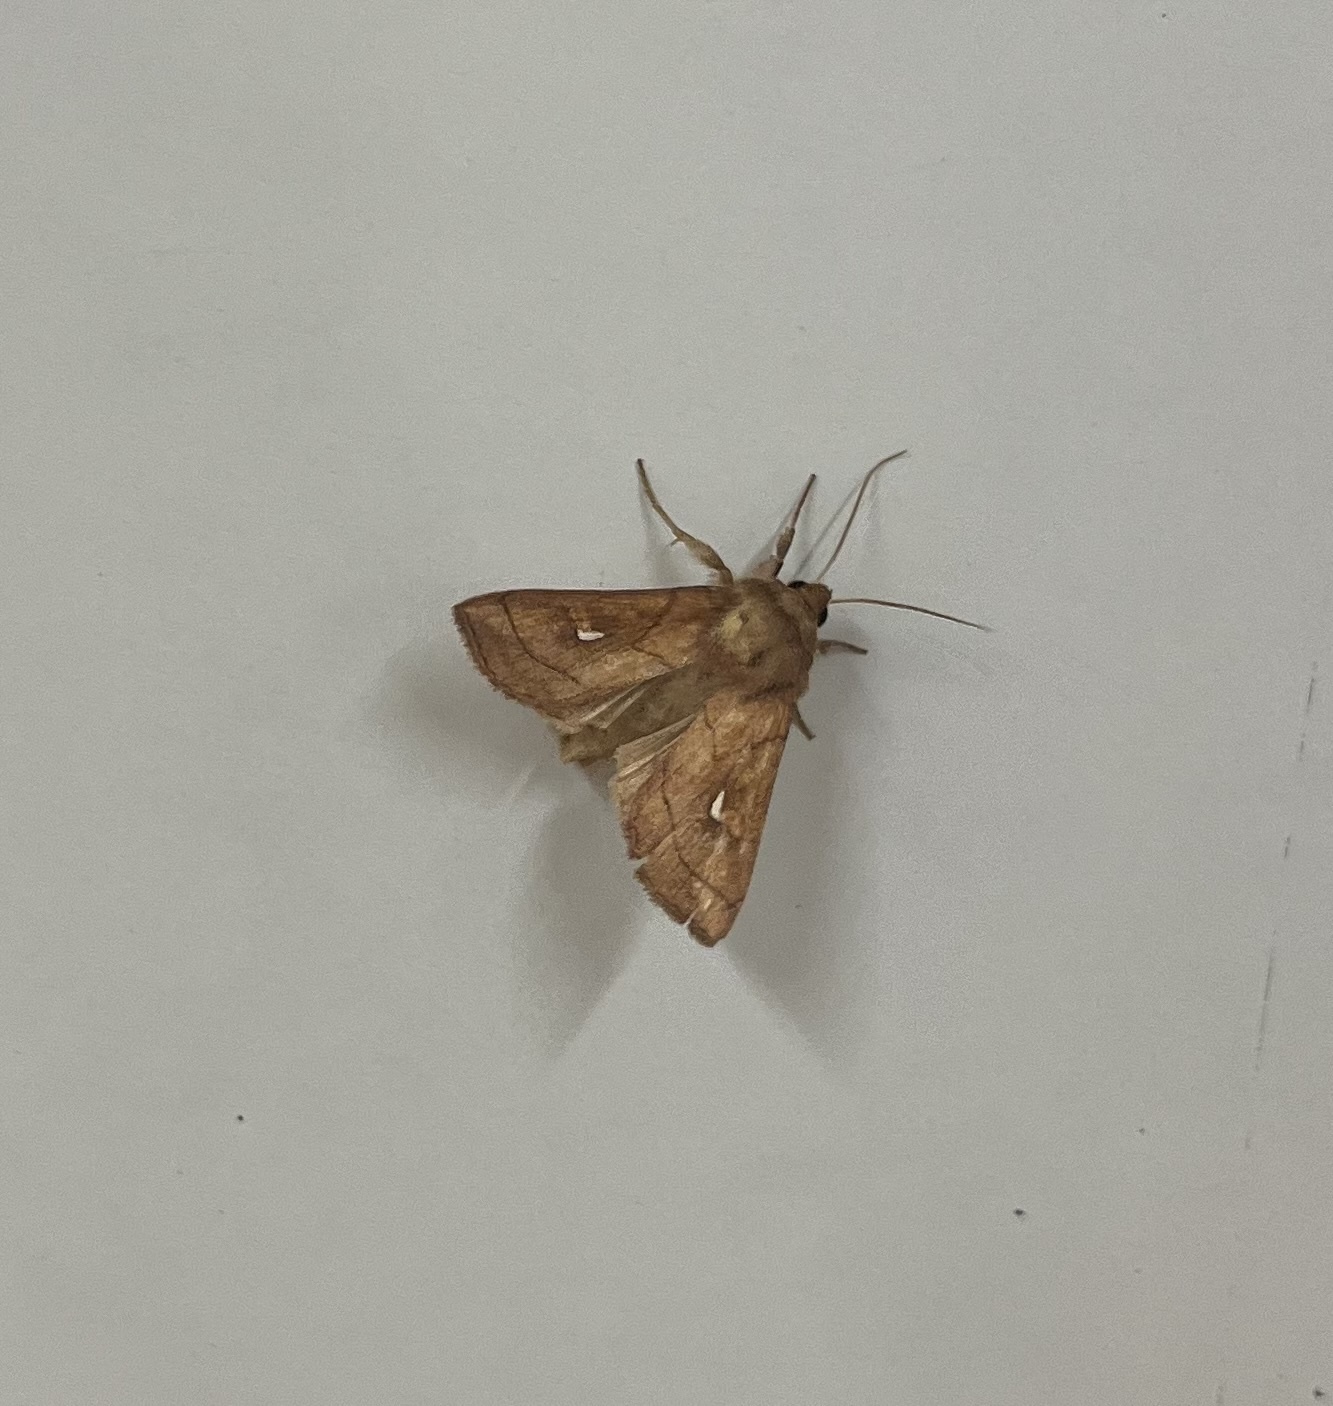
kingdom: Animalia
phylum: Arthropoda
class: Insecta
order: Lepidoptera
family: Noctuidae
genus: Mythimna
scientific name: Mythimna conigera
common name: Brown-line bright-eye
